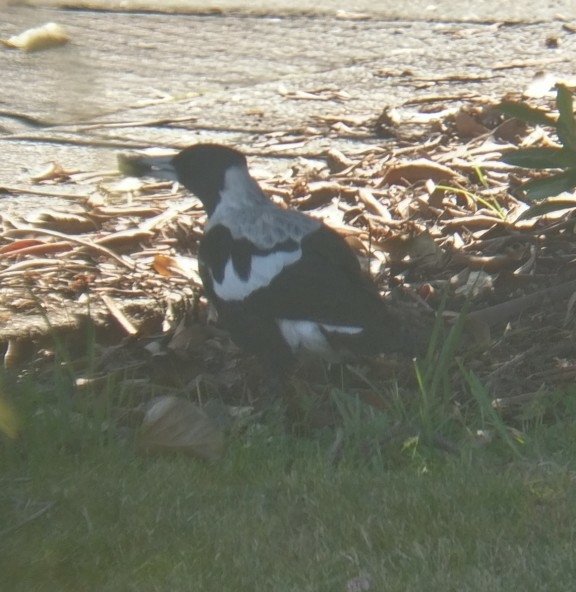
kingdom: Animalia
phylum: Chordata
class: Aves
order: Passeriformes
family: Cracticidae
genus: Gymnorhina
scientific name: Gymnorhina tibicen
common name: Australian magpie
